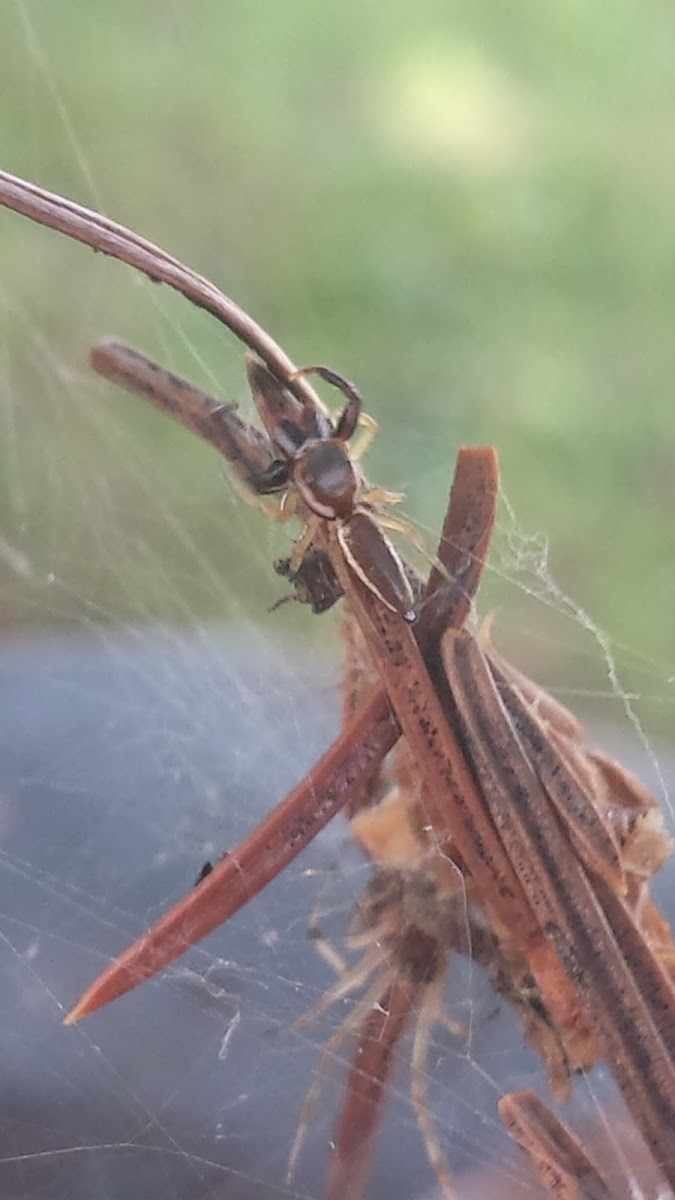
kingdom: Animalia
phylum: Arthropoda
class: Arachnida
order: Araneae
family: Salticidae
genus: Hentzia
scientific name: Hentzia palmarum
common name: Common hentz jumping spider
